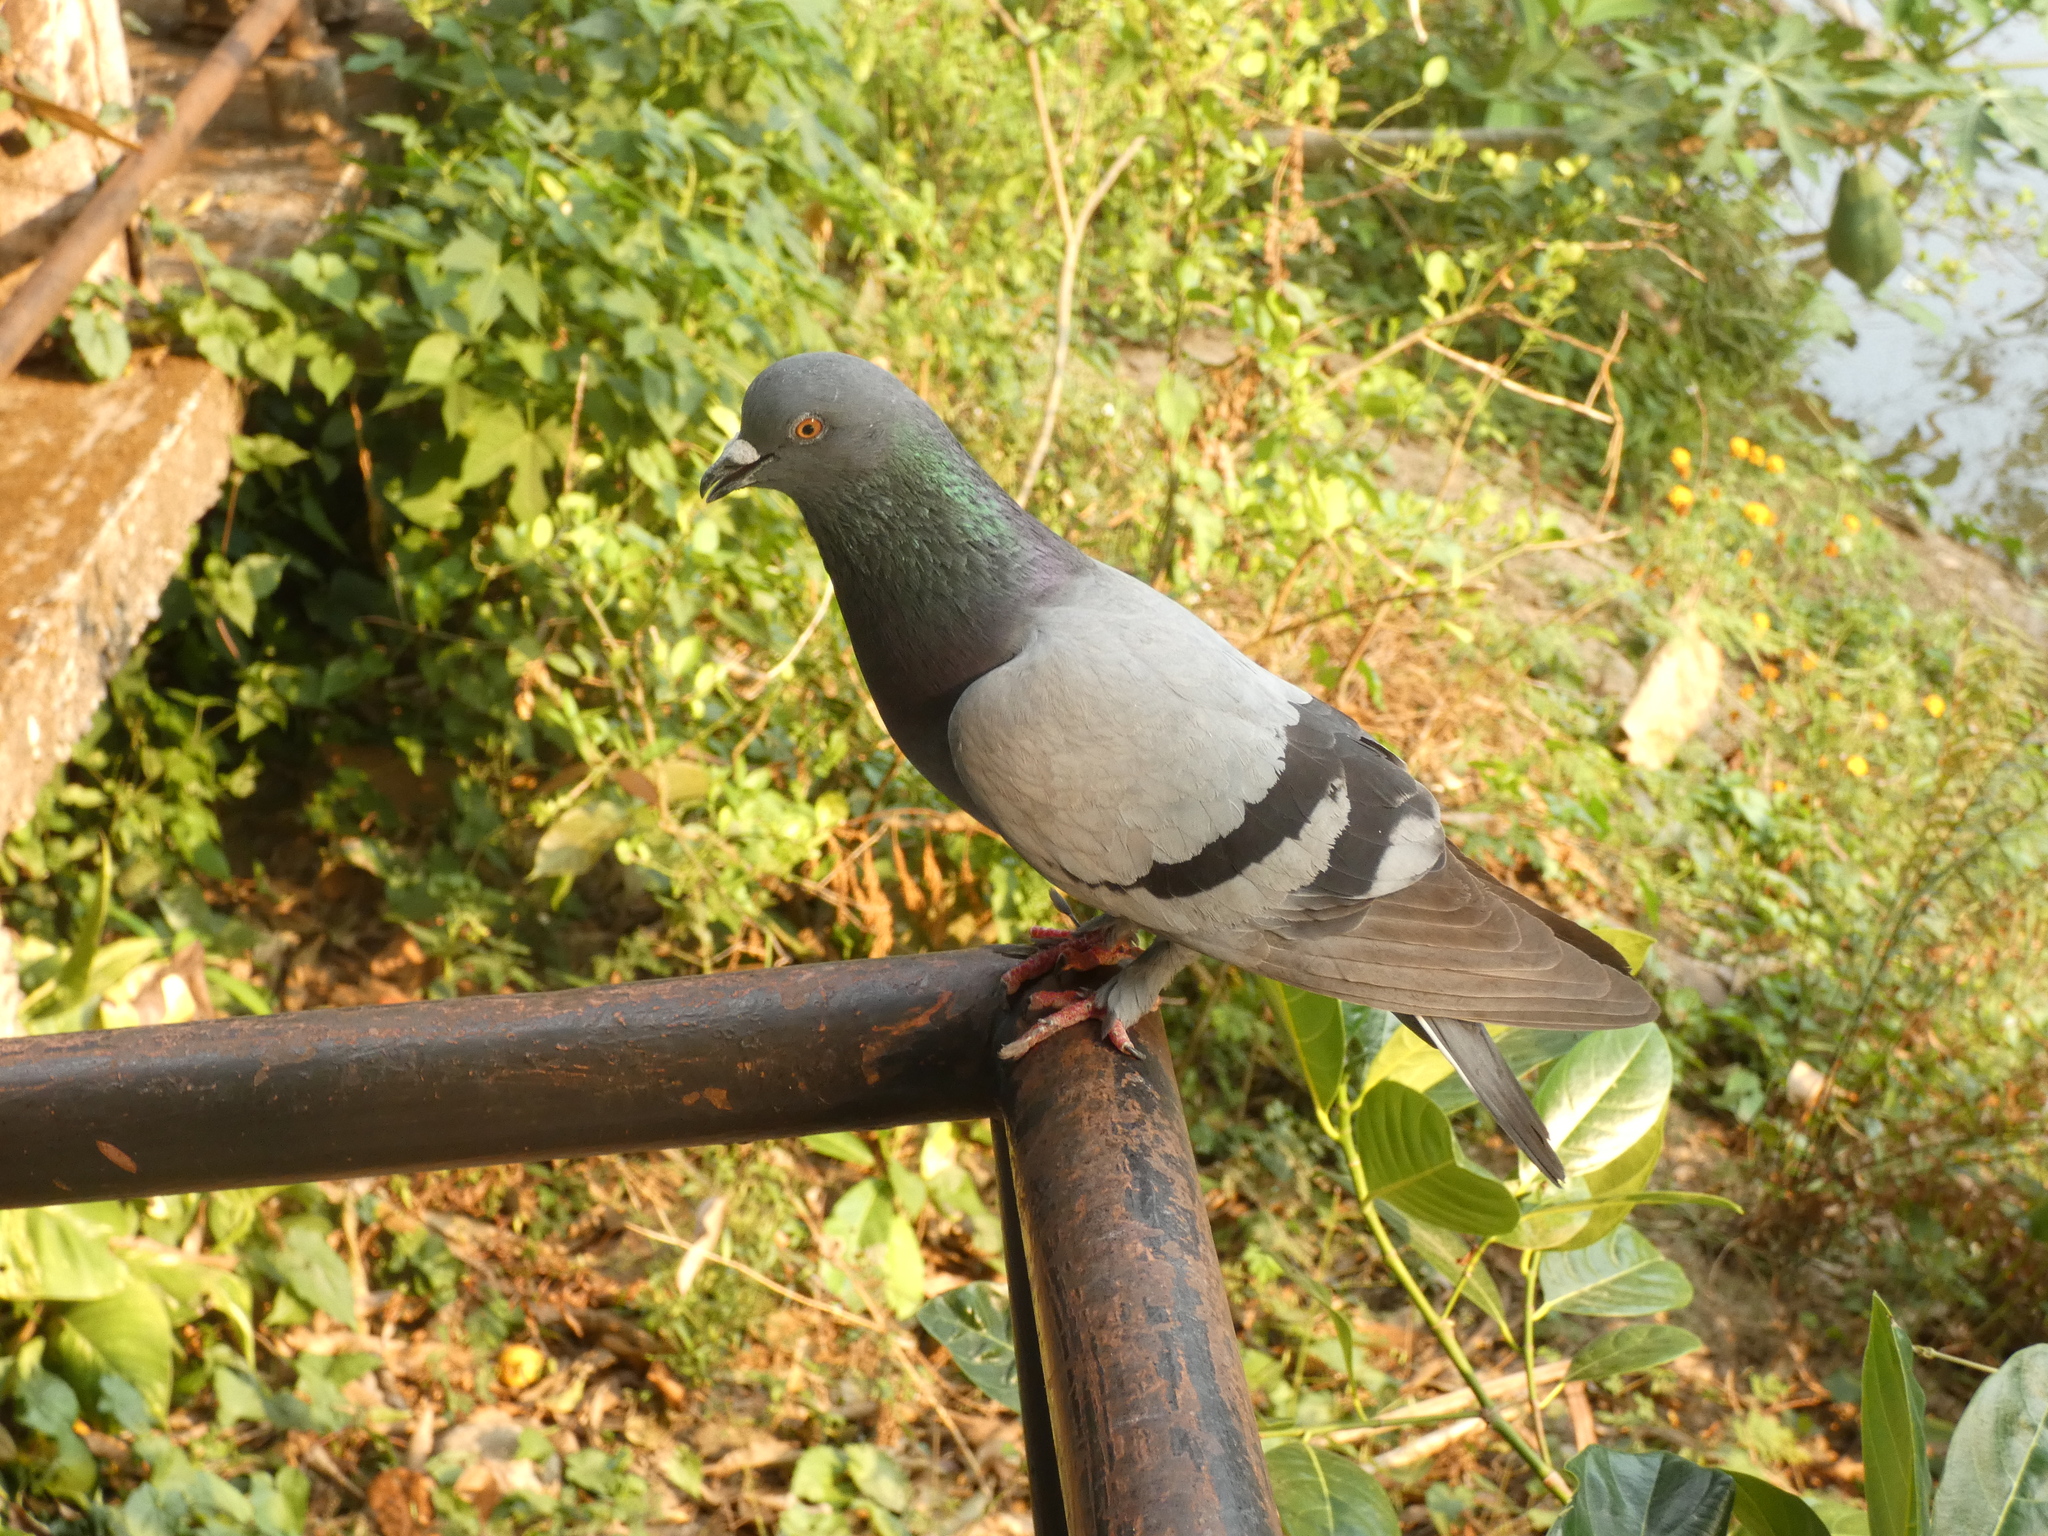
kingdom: Animalia
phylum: Chordata
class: Aves
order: Columbiformes
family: Columbidae
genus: Columba
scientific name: Columba livia
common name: Rock pigeon
